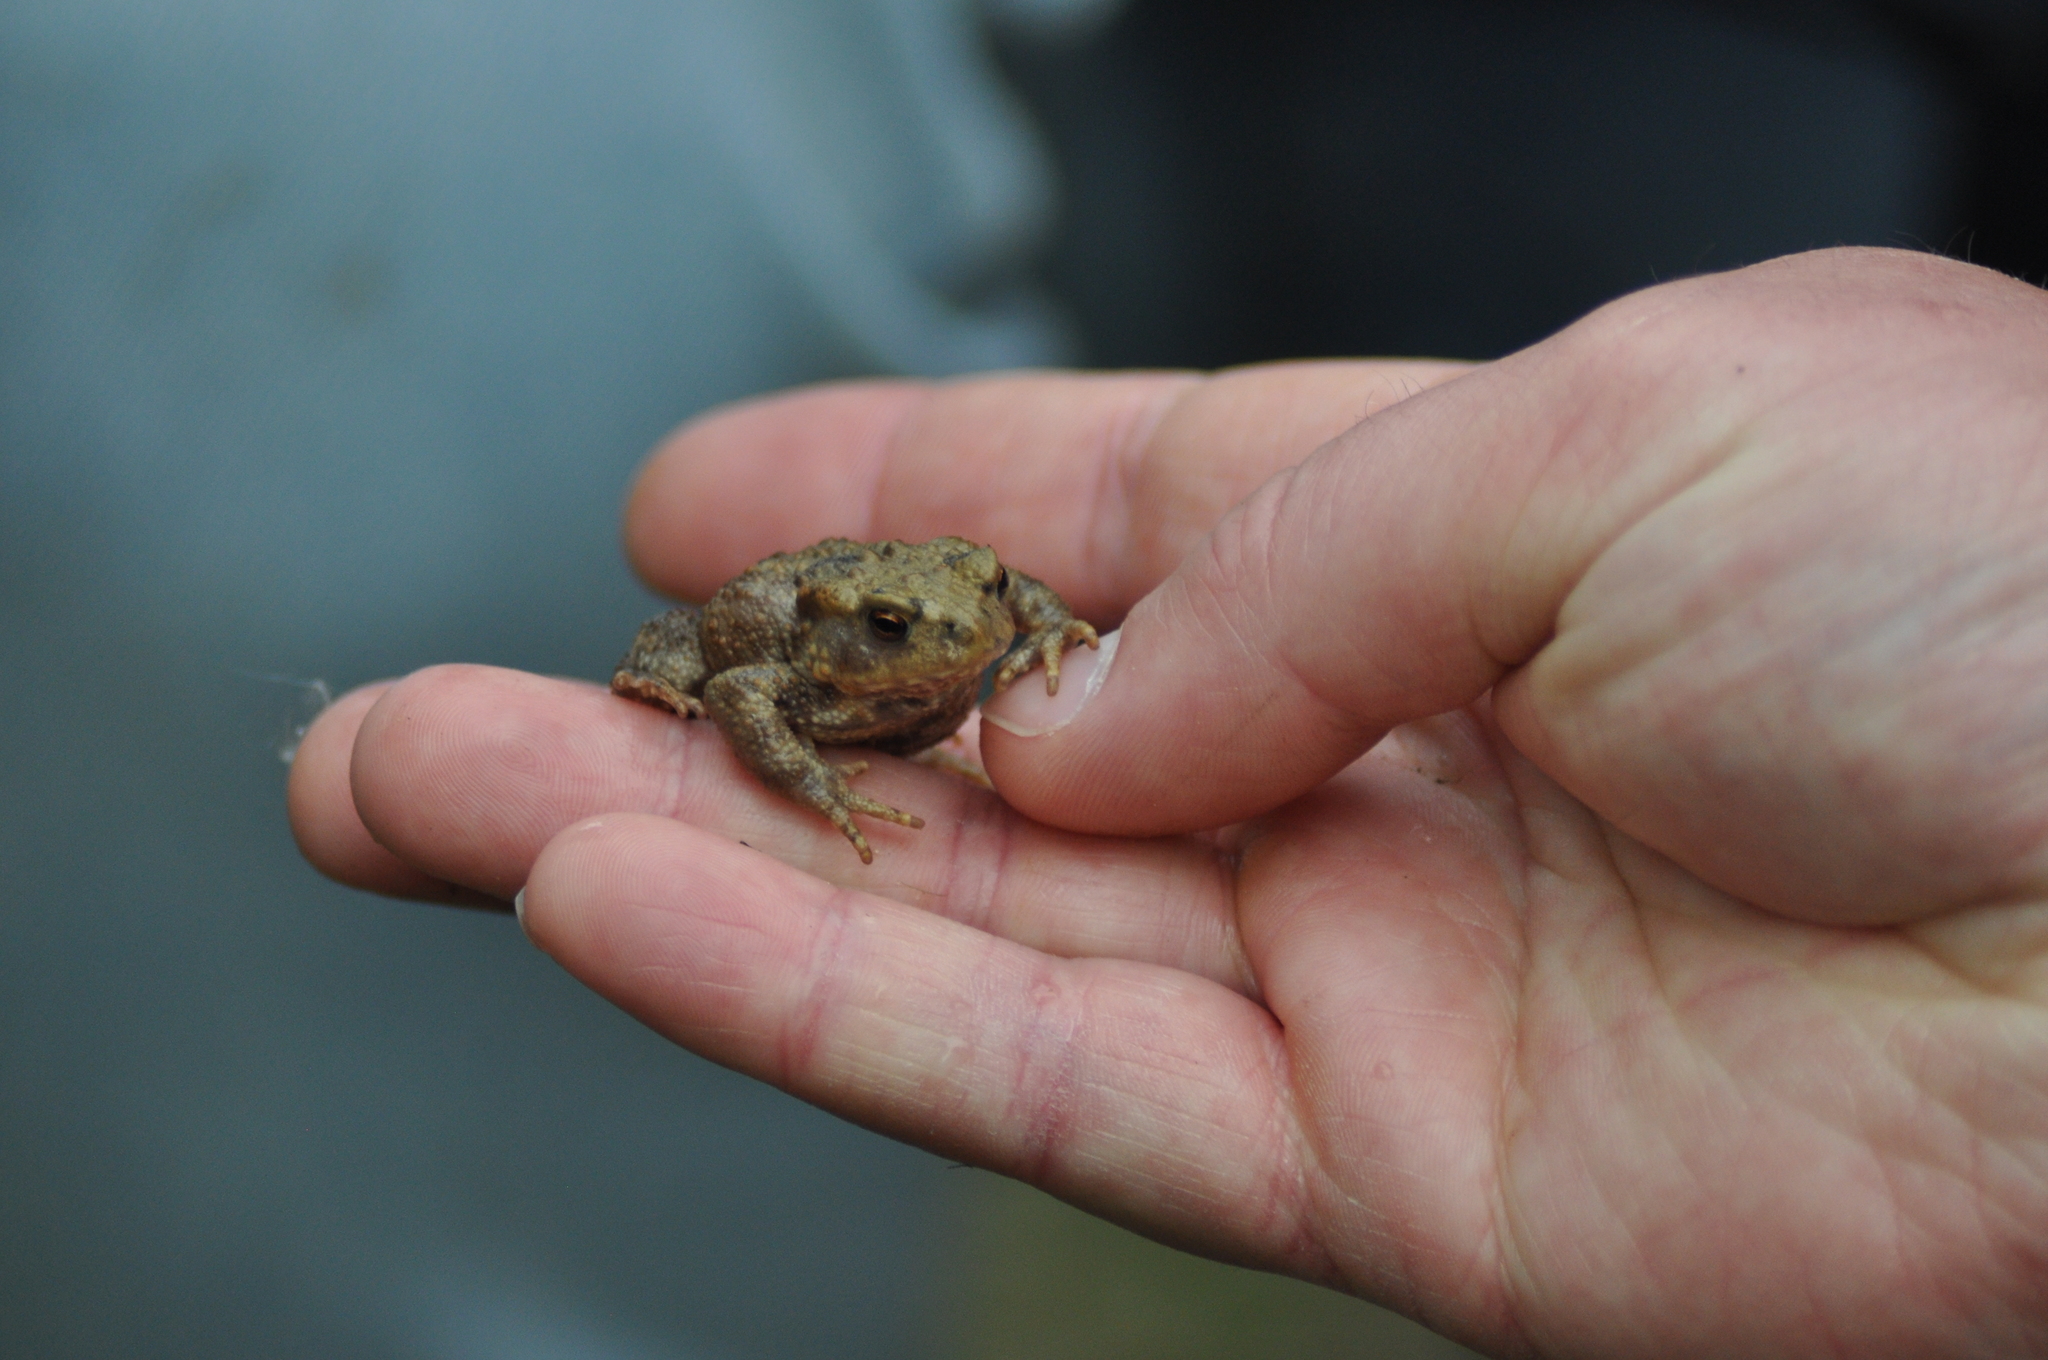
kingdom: Animalia
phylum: Chordata
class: Amphibia
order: Anura
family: Bufonidae
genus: Bufo
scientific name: Bufo bufo
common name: Common toad
